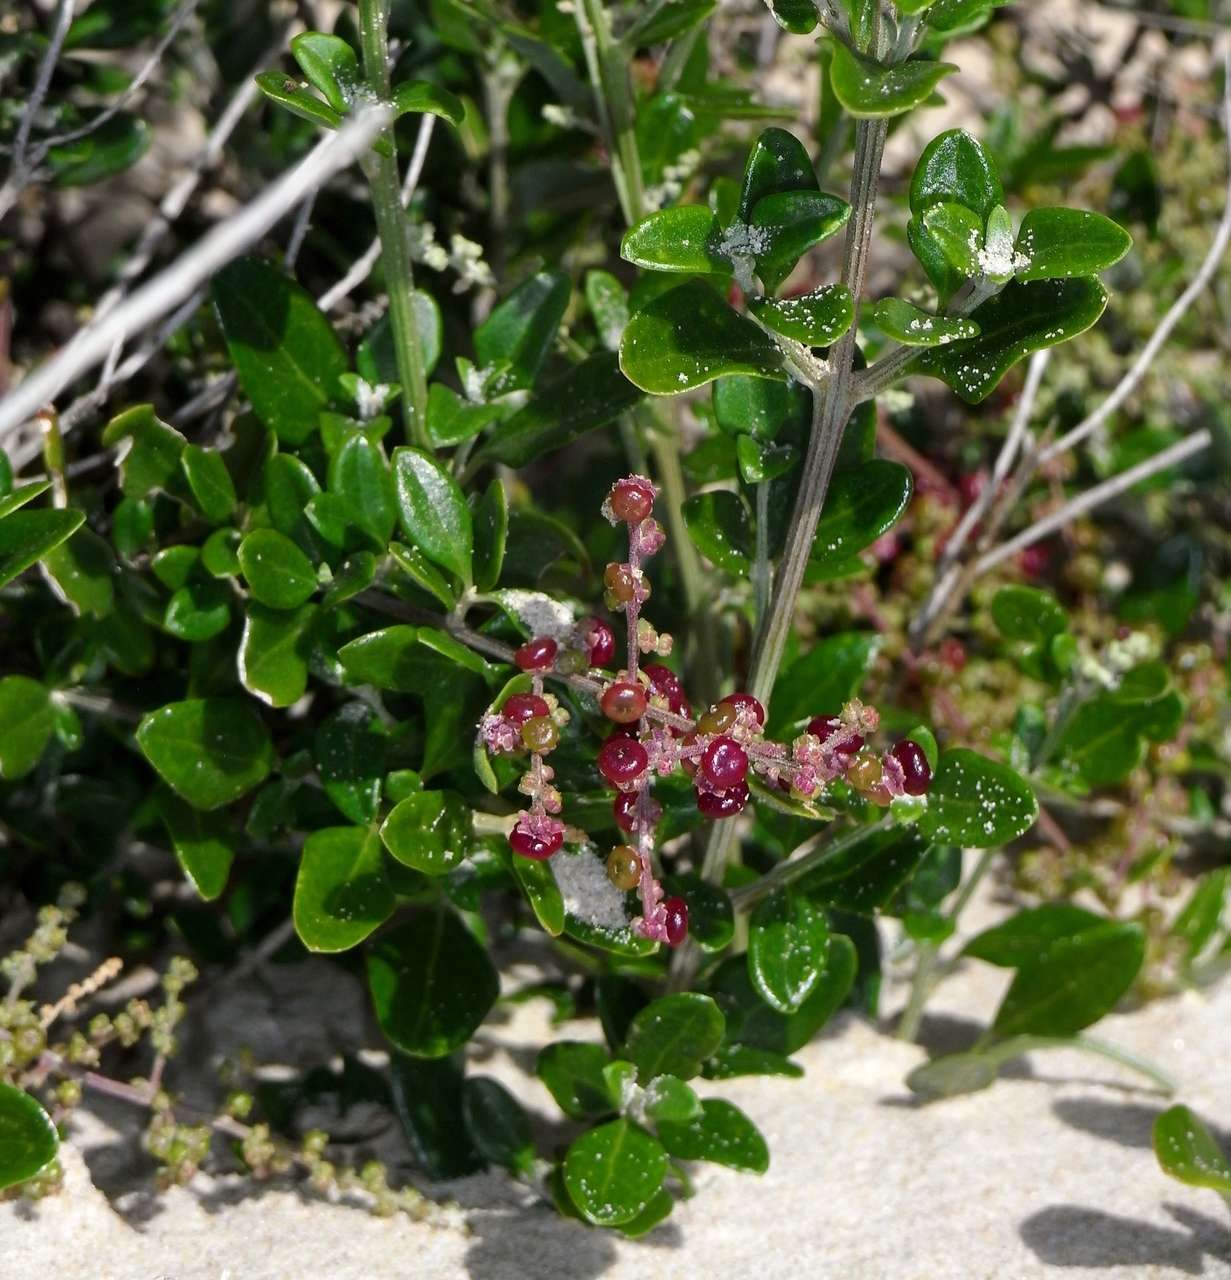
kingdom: Plantae
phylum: Tracheophyta
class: Magnoliopsida
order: Caryophyllales
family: Amaranthaceae
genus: Chenopodium
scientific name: Chenopodium candolleanum
